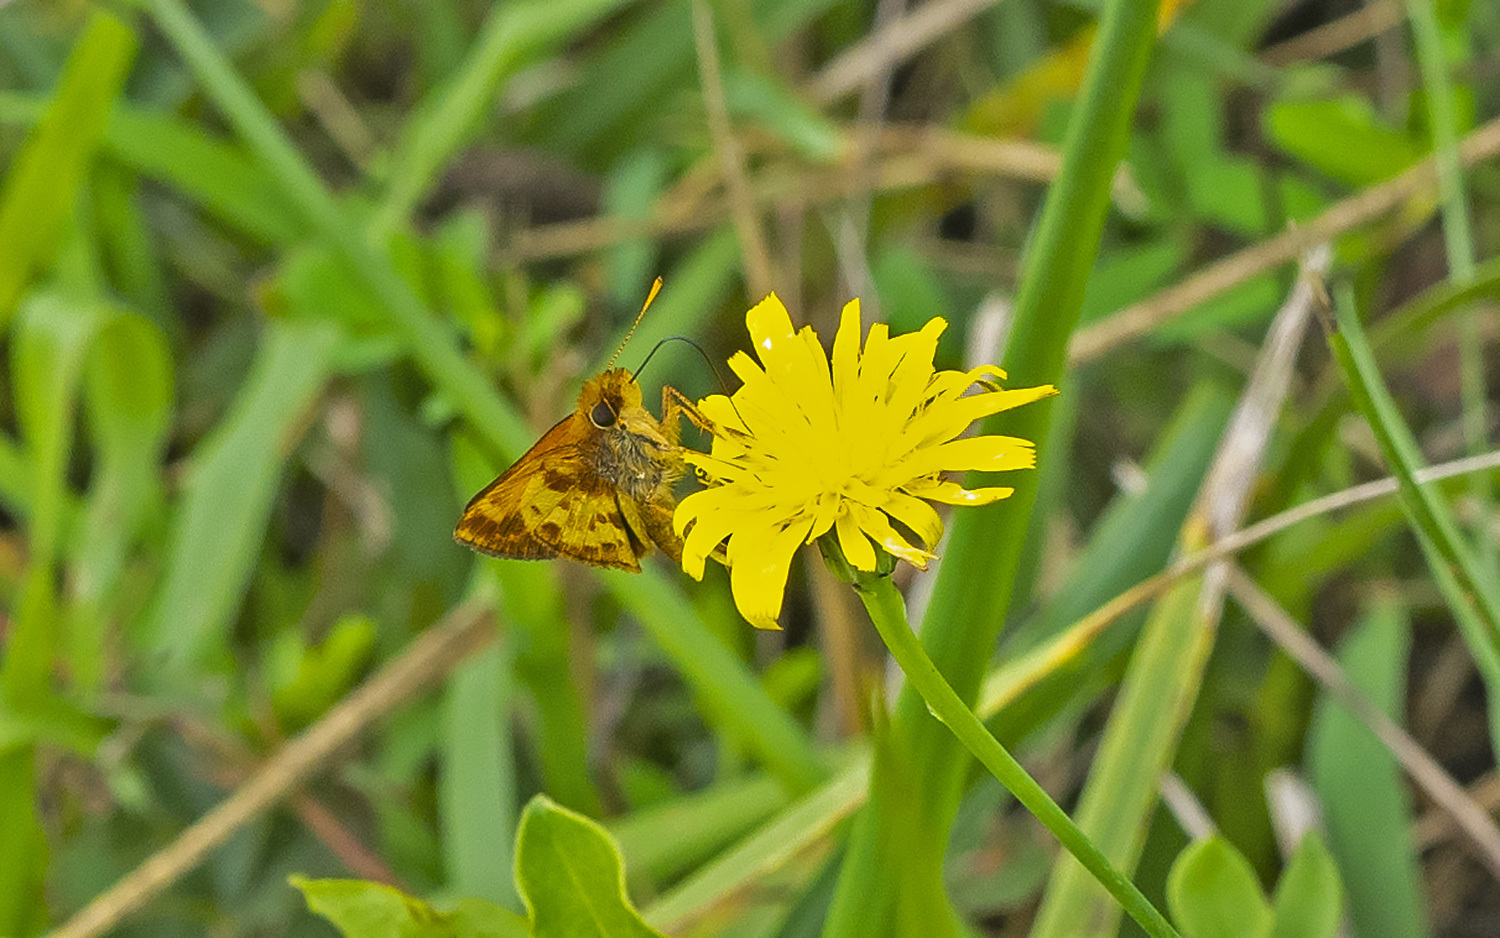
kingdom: Animalia
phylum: Arthropoda
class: Insecta
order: Lepidoptera
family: Hesperiidae
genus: Lon
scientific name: Lon zabulon
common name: Zabulon skipper
